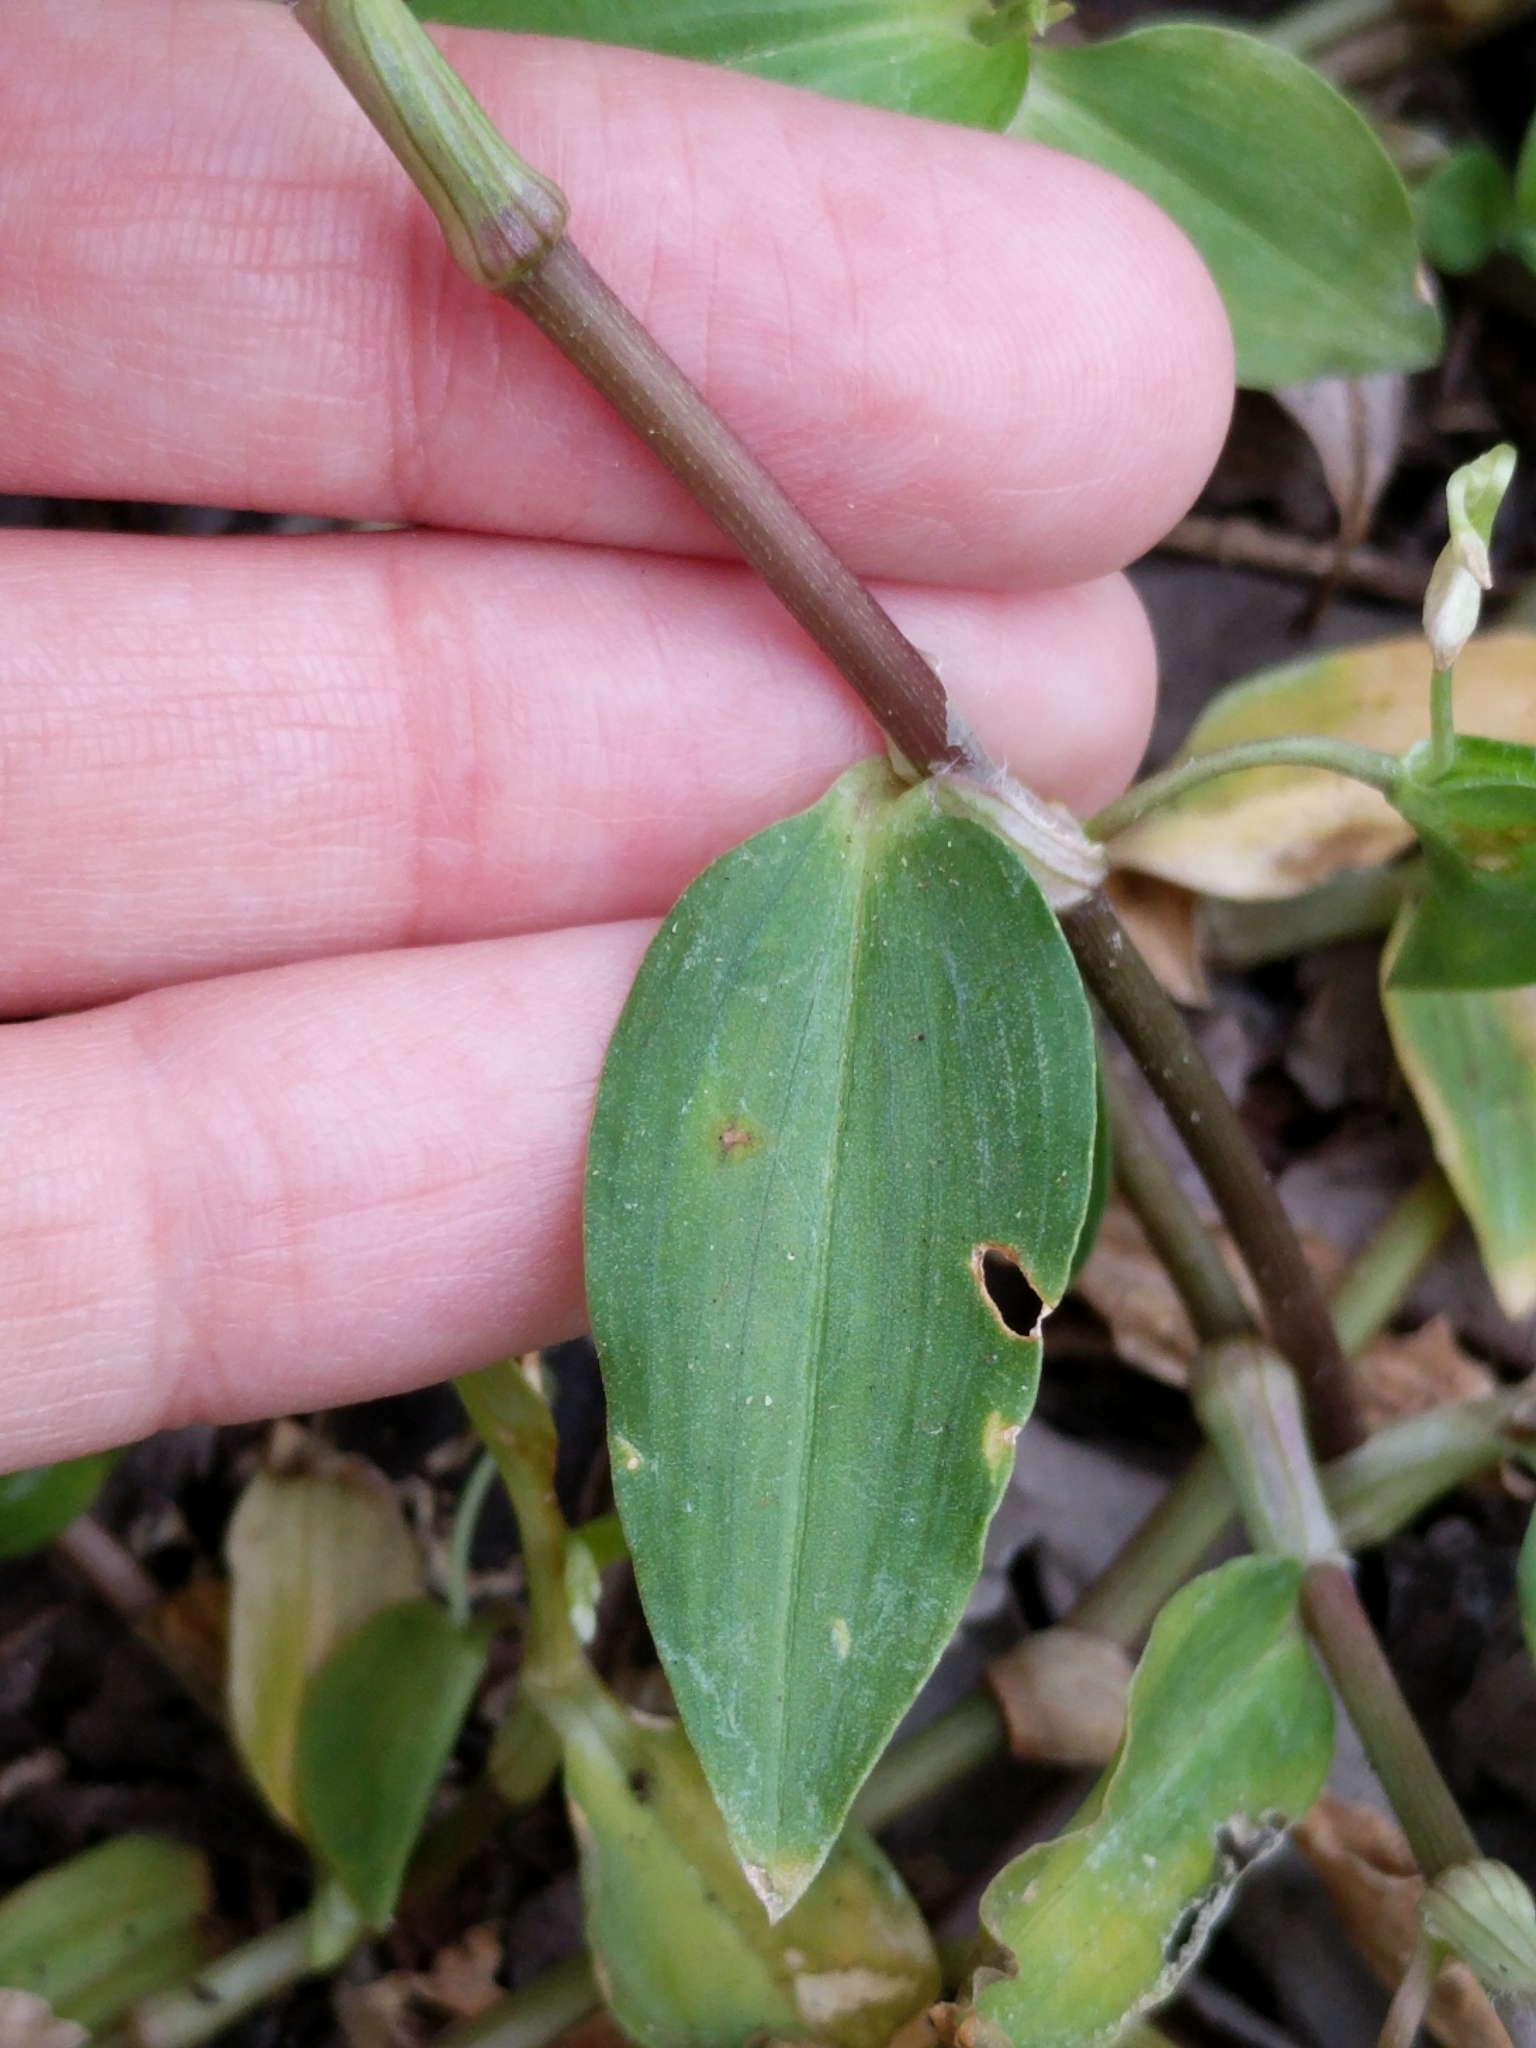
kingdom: Plantae
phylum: Tracheophyta
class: Liliopsida
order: Commelinales
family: Commelinaceae
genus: Commelina
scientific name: Commelina diffusa
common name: Climbing dayflower
